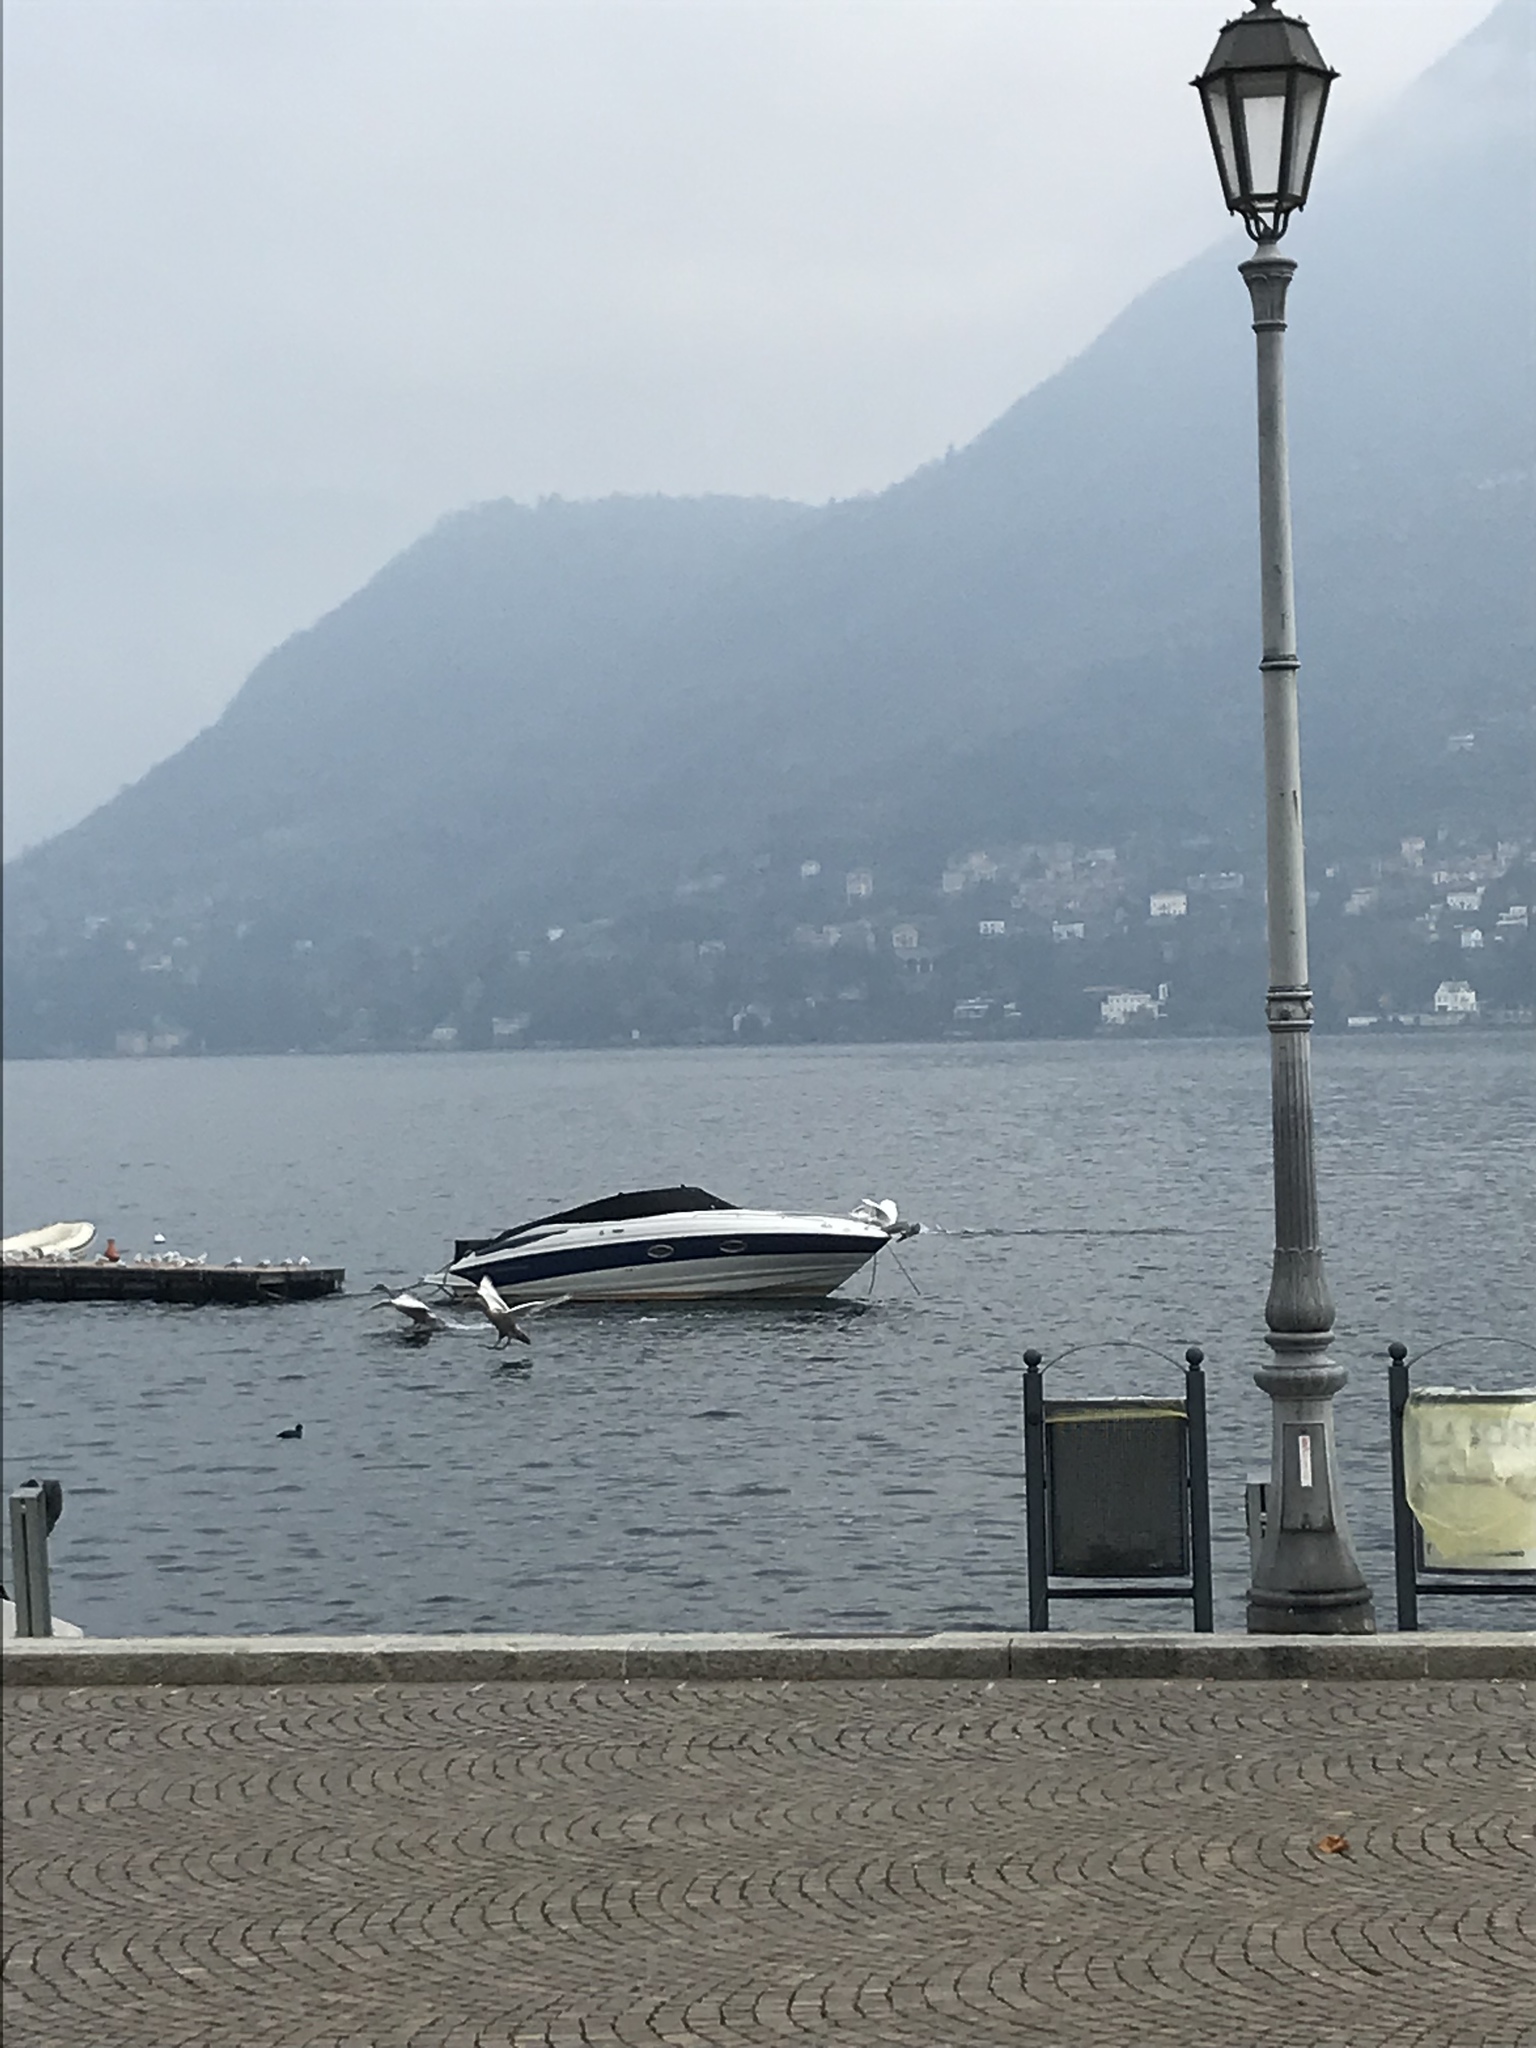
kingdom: Animalia
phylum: Chordata
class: Aves
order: Anseriformes
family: Anatidae
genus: Cygnus
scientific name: Cygnus olor
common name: Mute swan
